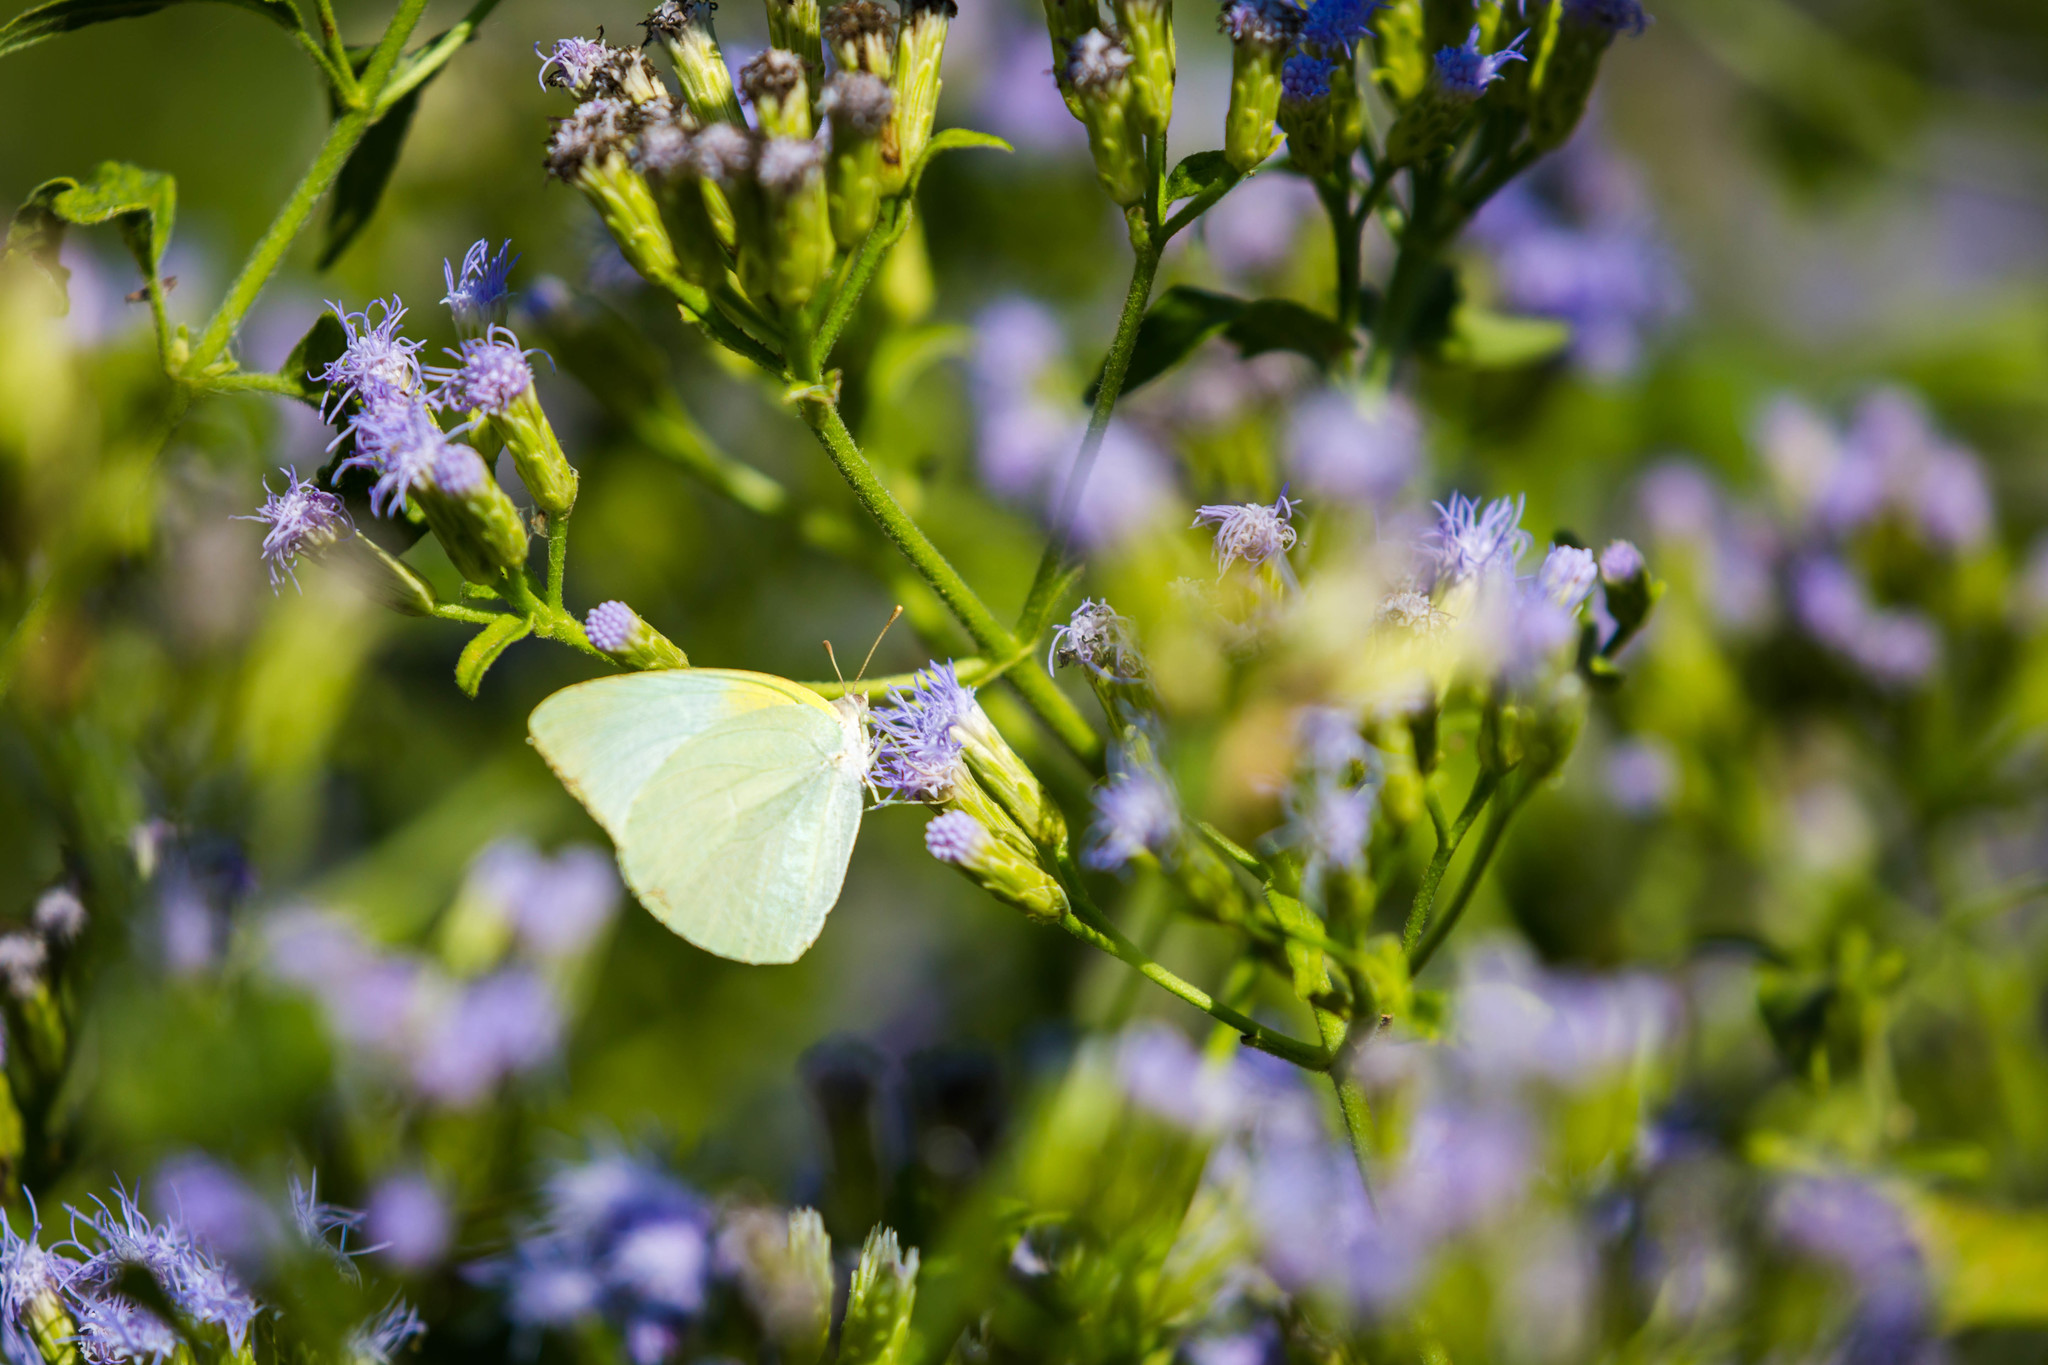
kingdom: Animalia
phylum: Arthropoda
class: Insecta
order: Lepidoptera
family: Pieridae
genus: Kricogonia
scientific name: Kricogonia lyside
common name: Guayacan sulphur,
